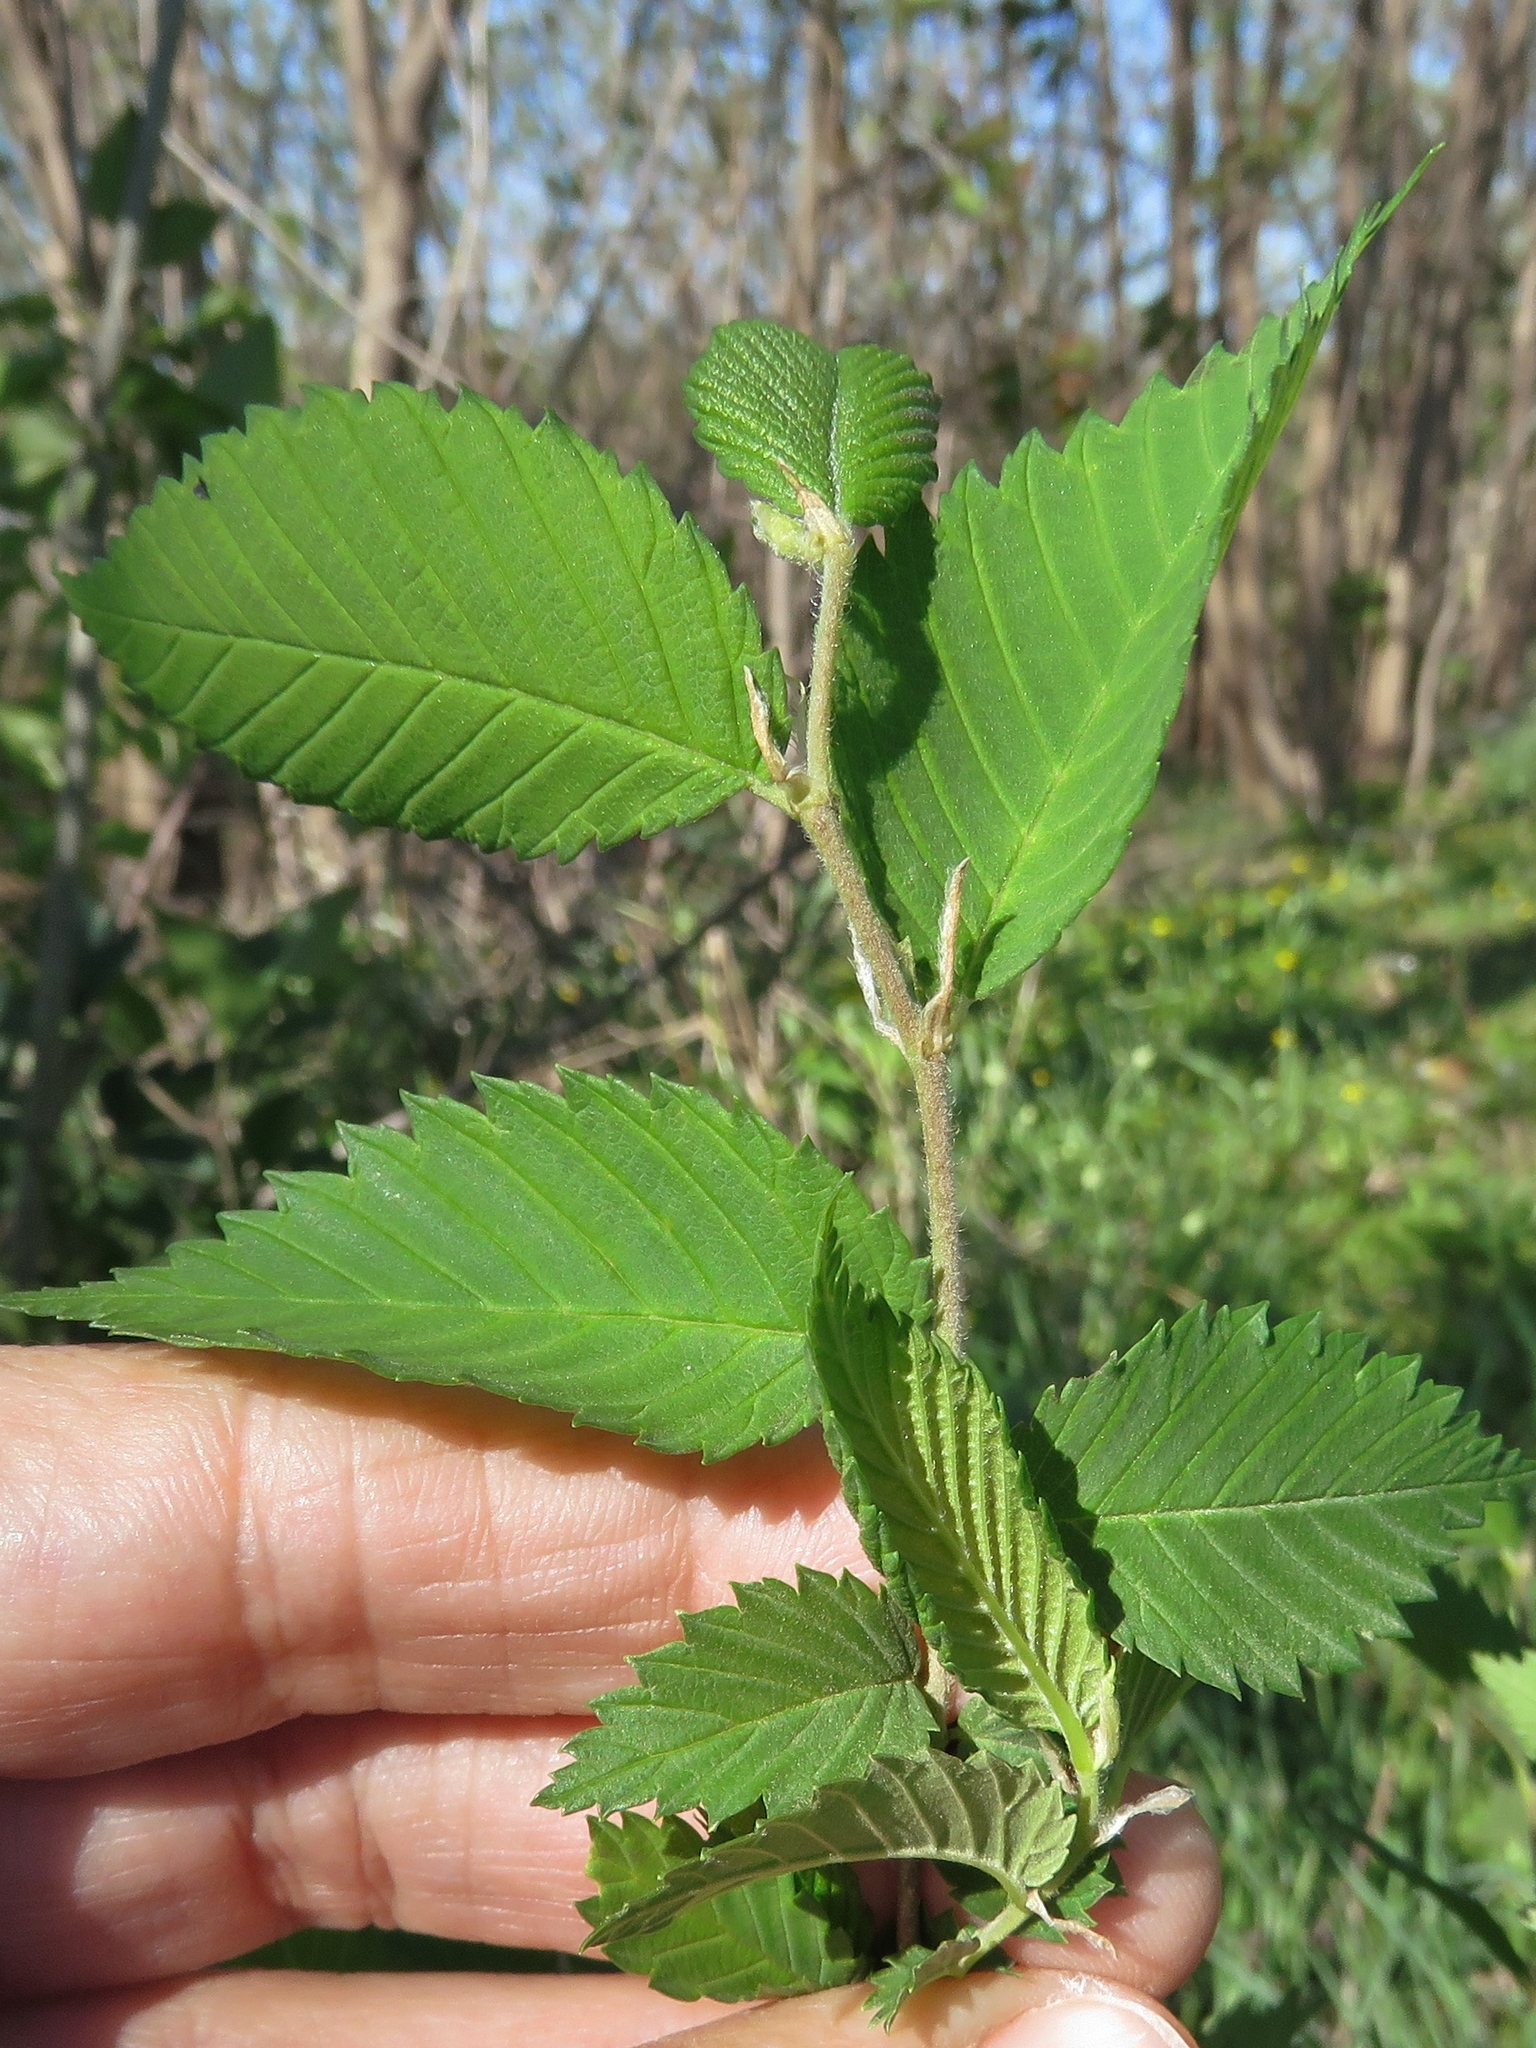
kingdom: Plantae
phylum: Tracheophyta
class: Magnoliopsida
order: Rosales
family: Ulmaceae
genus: Ulmus
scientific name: Ulmus americana
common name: American elm
